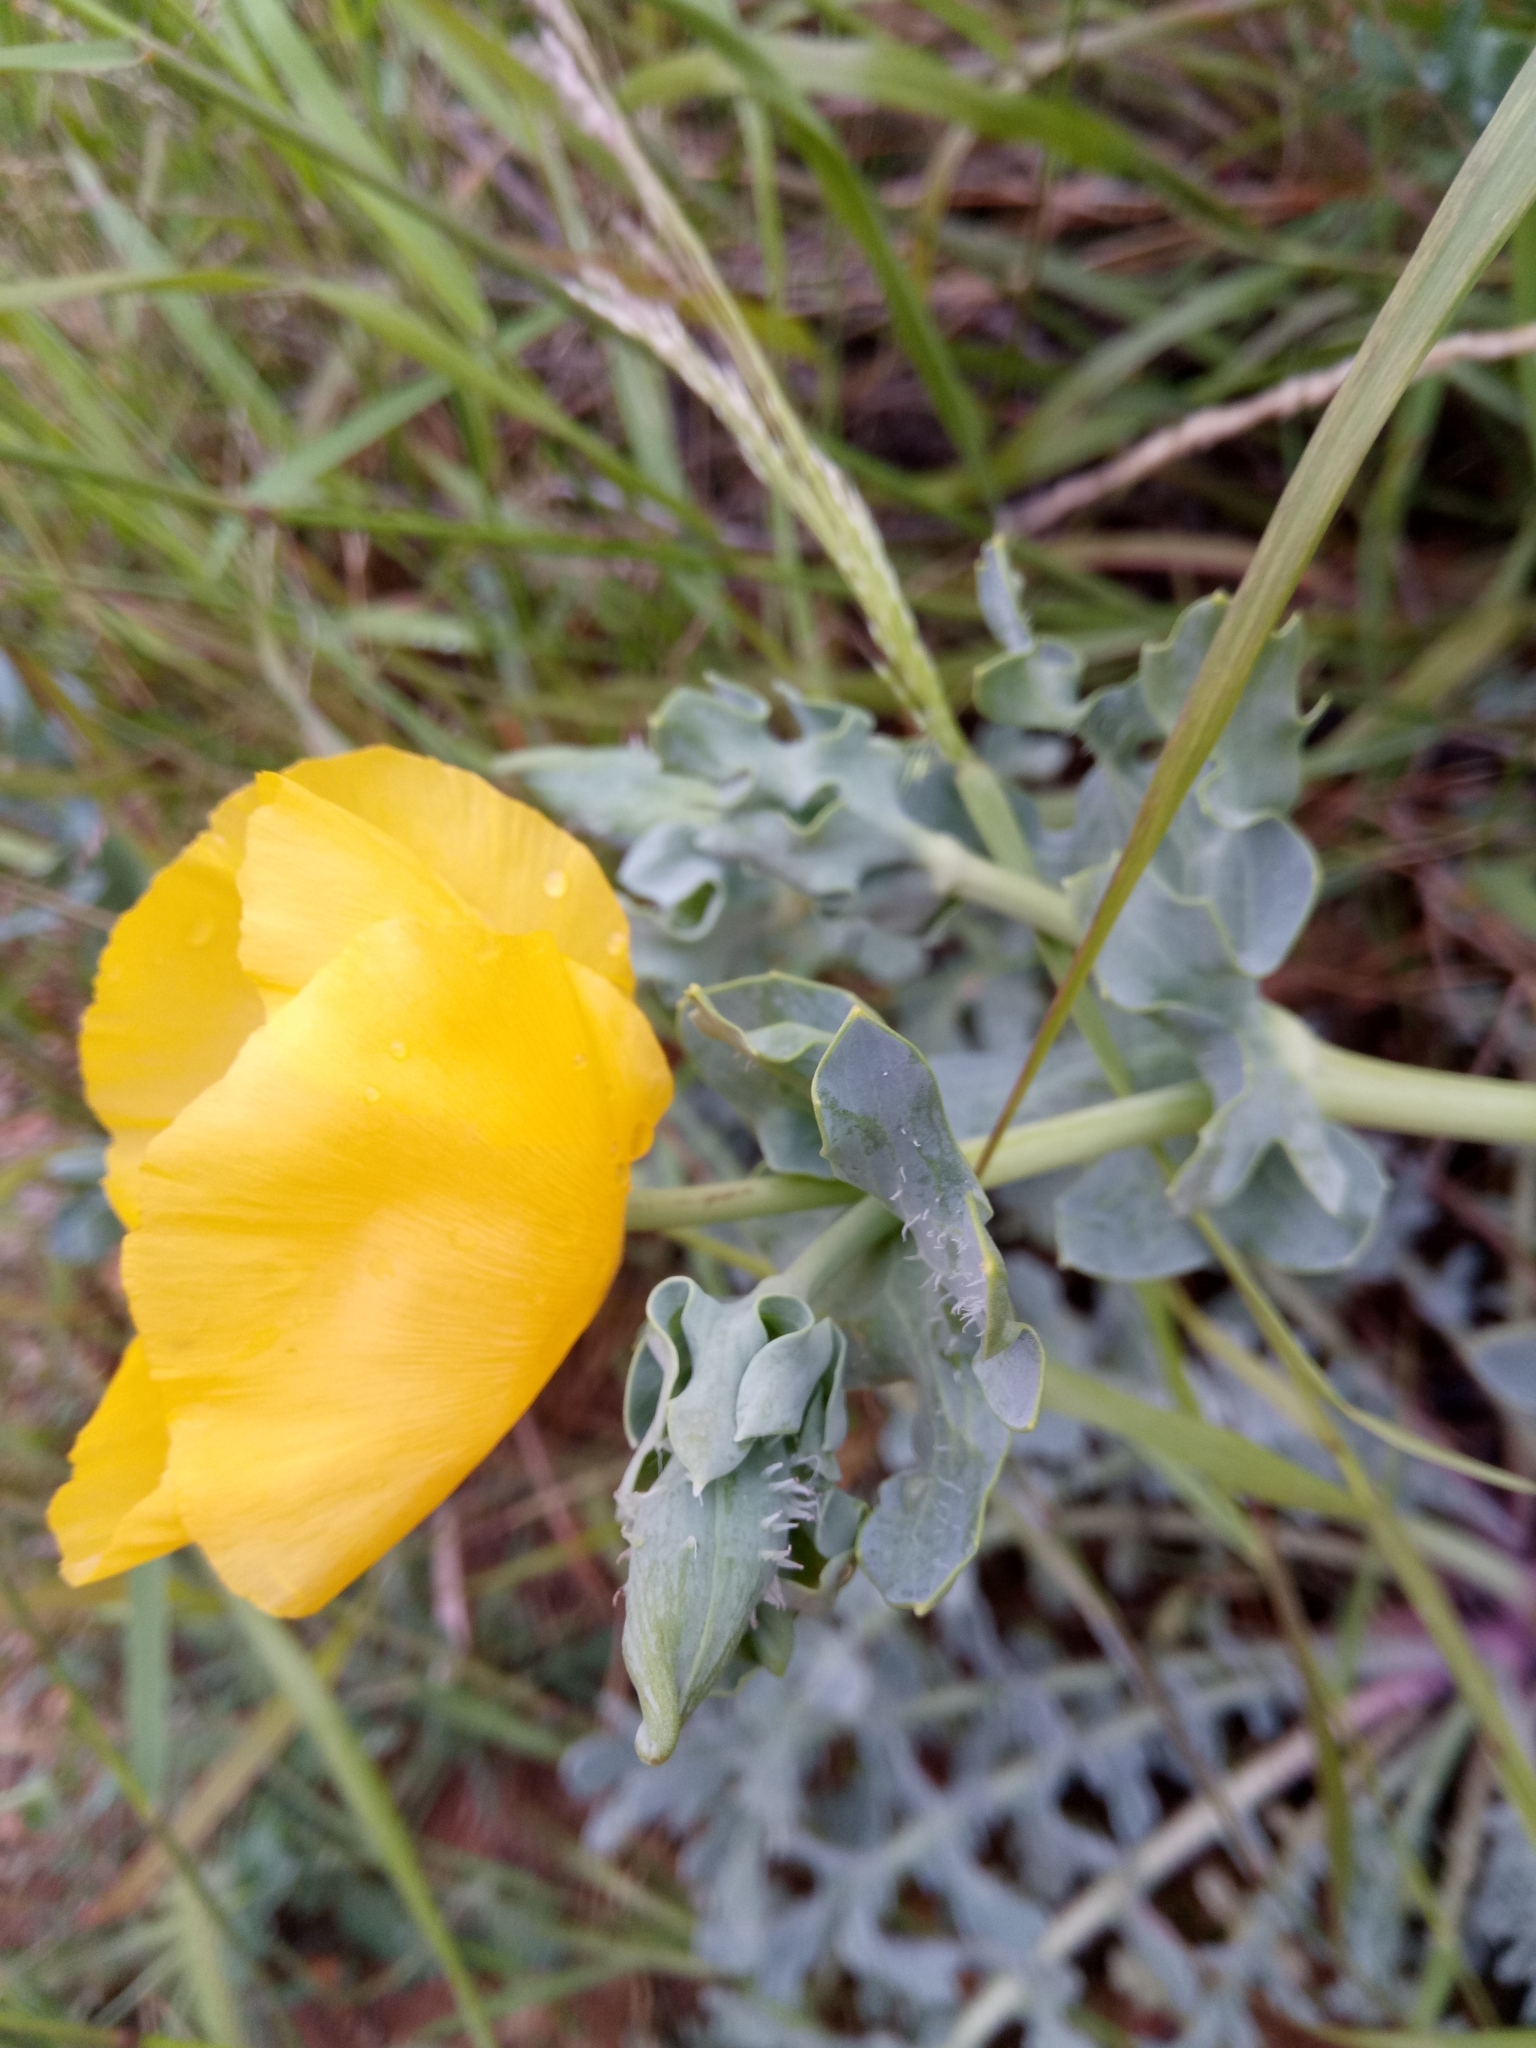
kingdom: Plantae
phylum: Tracheophyta
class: Magnoliopsida
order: Ranunculales
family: Papaveraceae
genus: Glaucium
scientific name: Glaucium flavum
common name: Yellow horned-poppy
